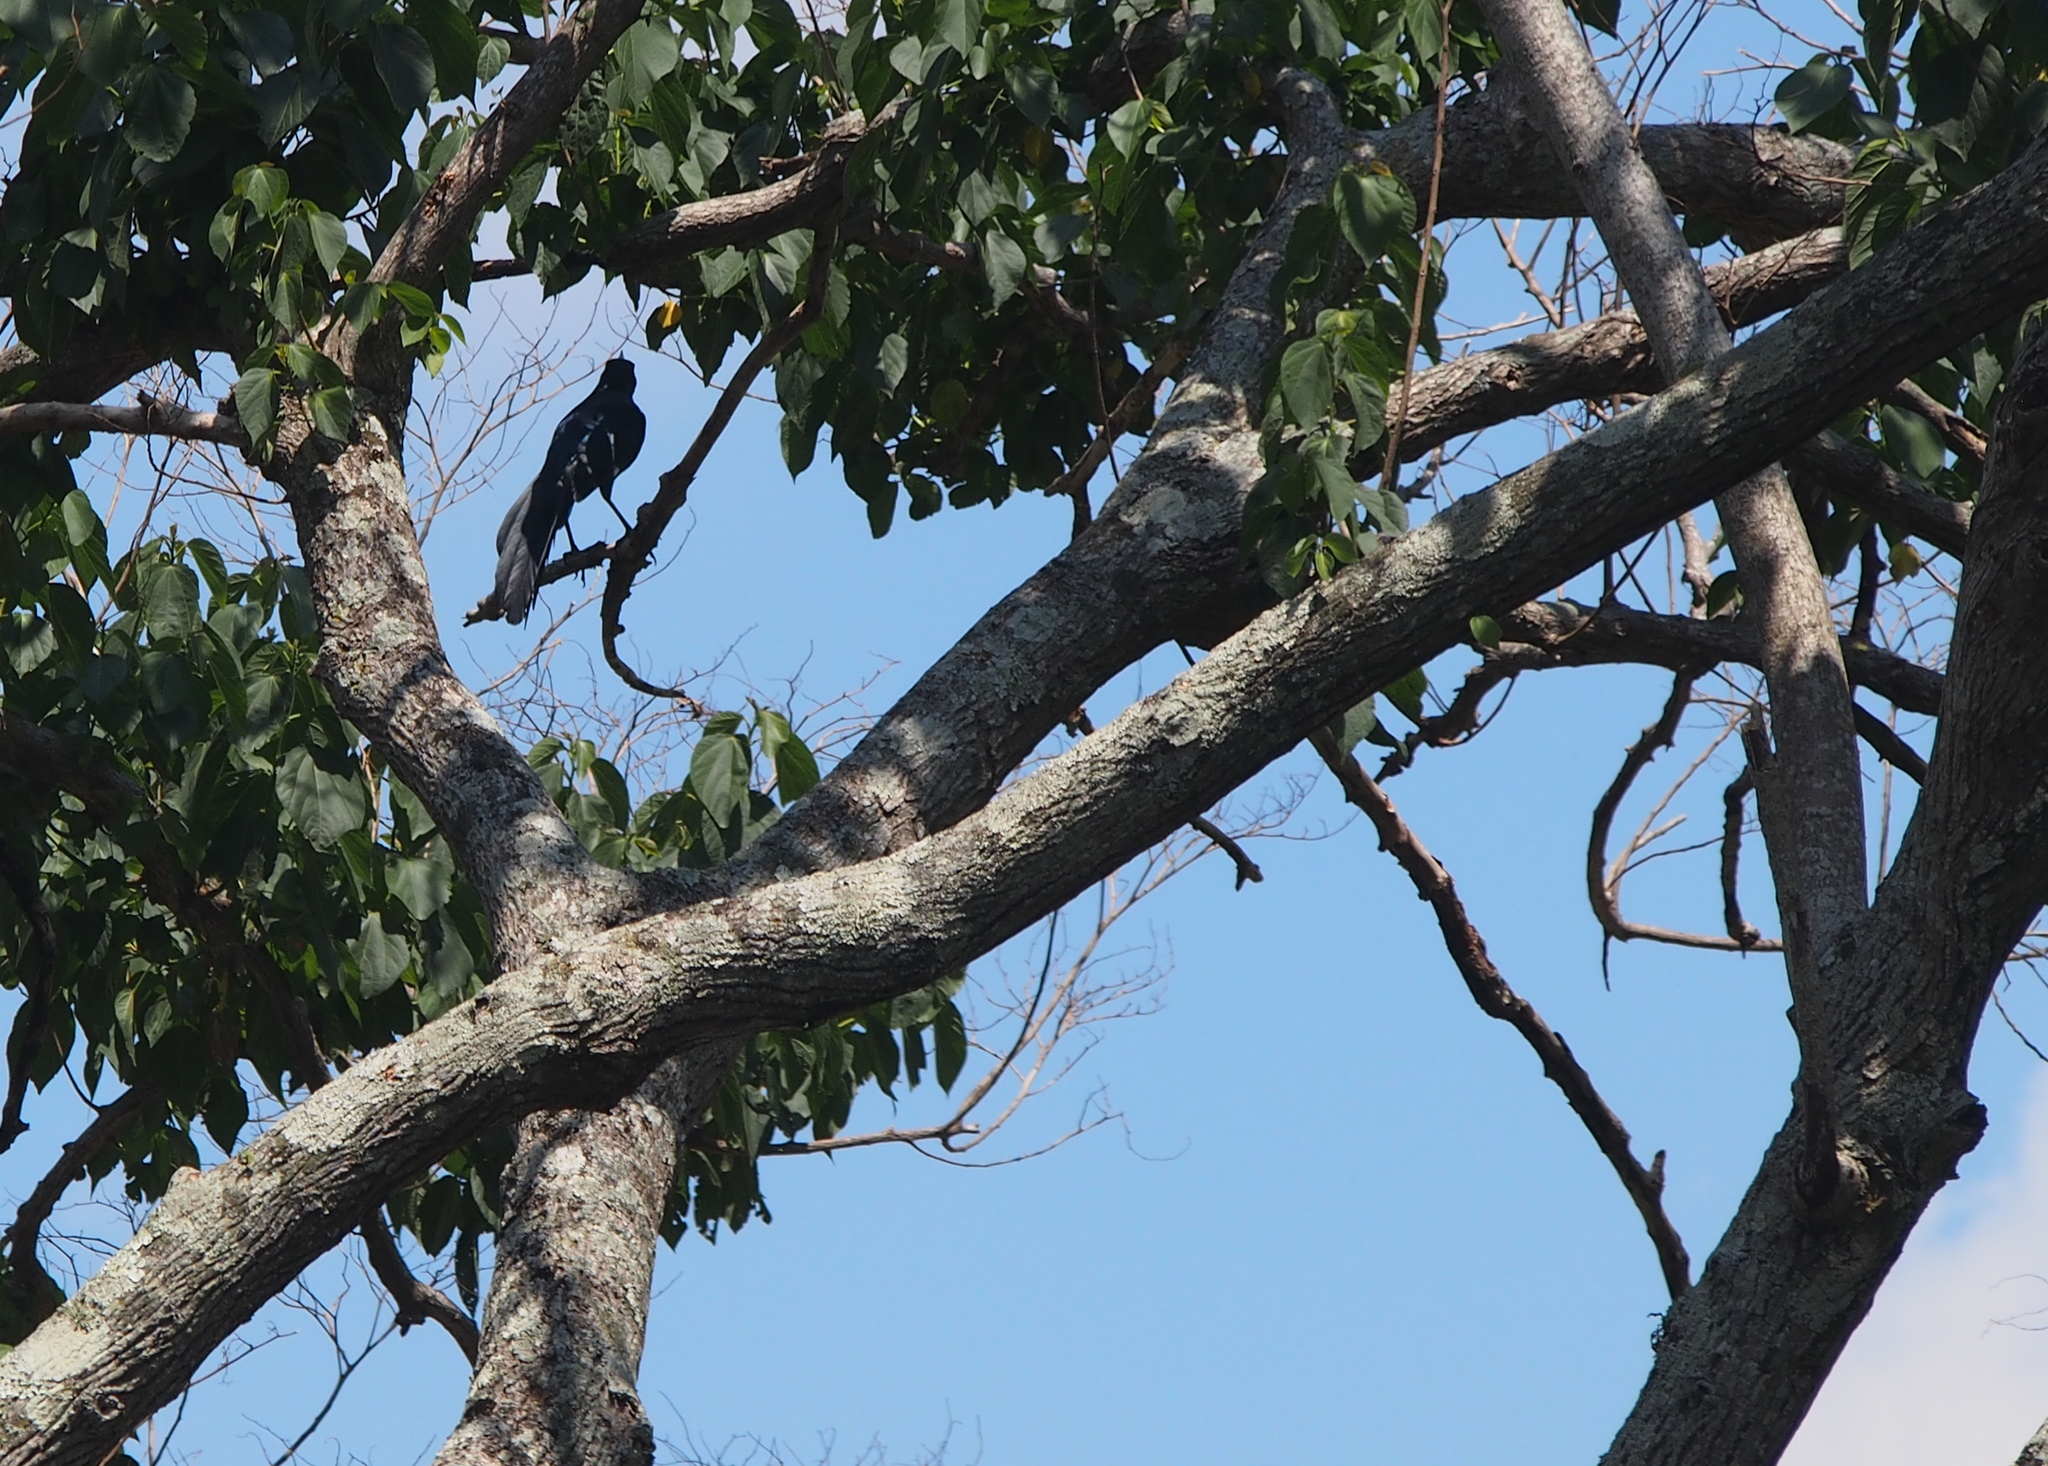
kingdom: Animalia
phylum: Chordata
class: Aves
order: Passeriformes
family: Icteridae
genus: Quiscalus
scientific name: Quiscalus mexicanus
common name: Great-tailed grackle
